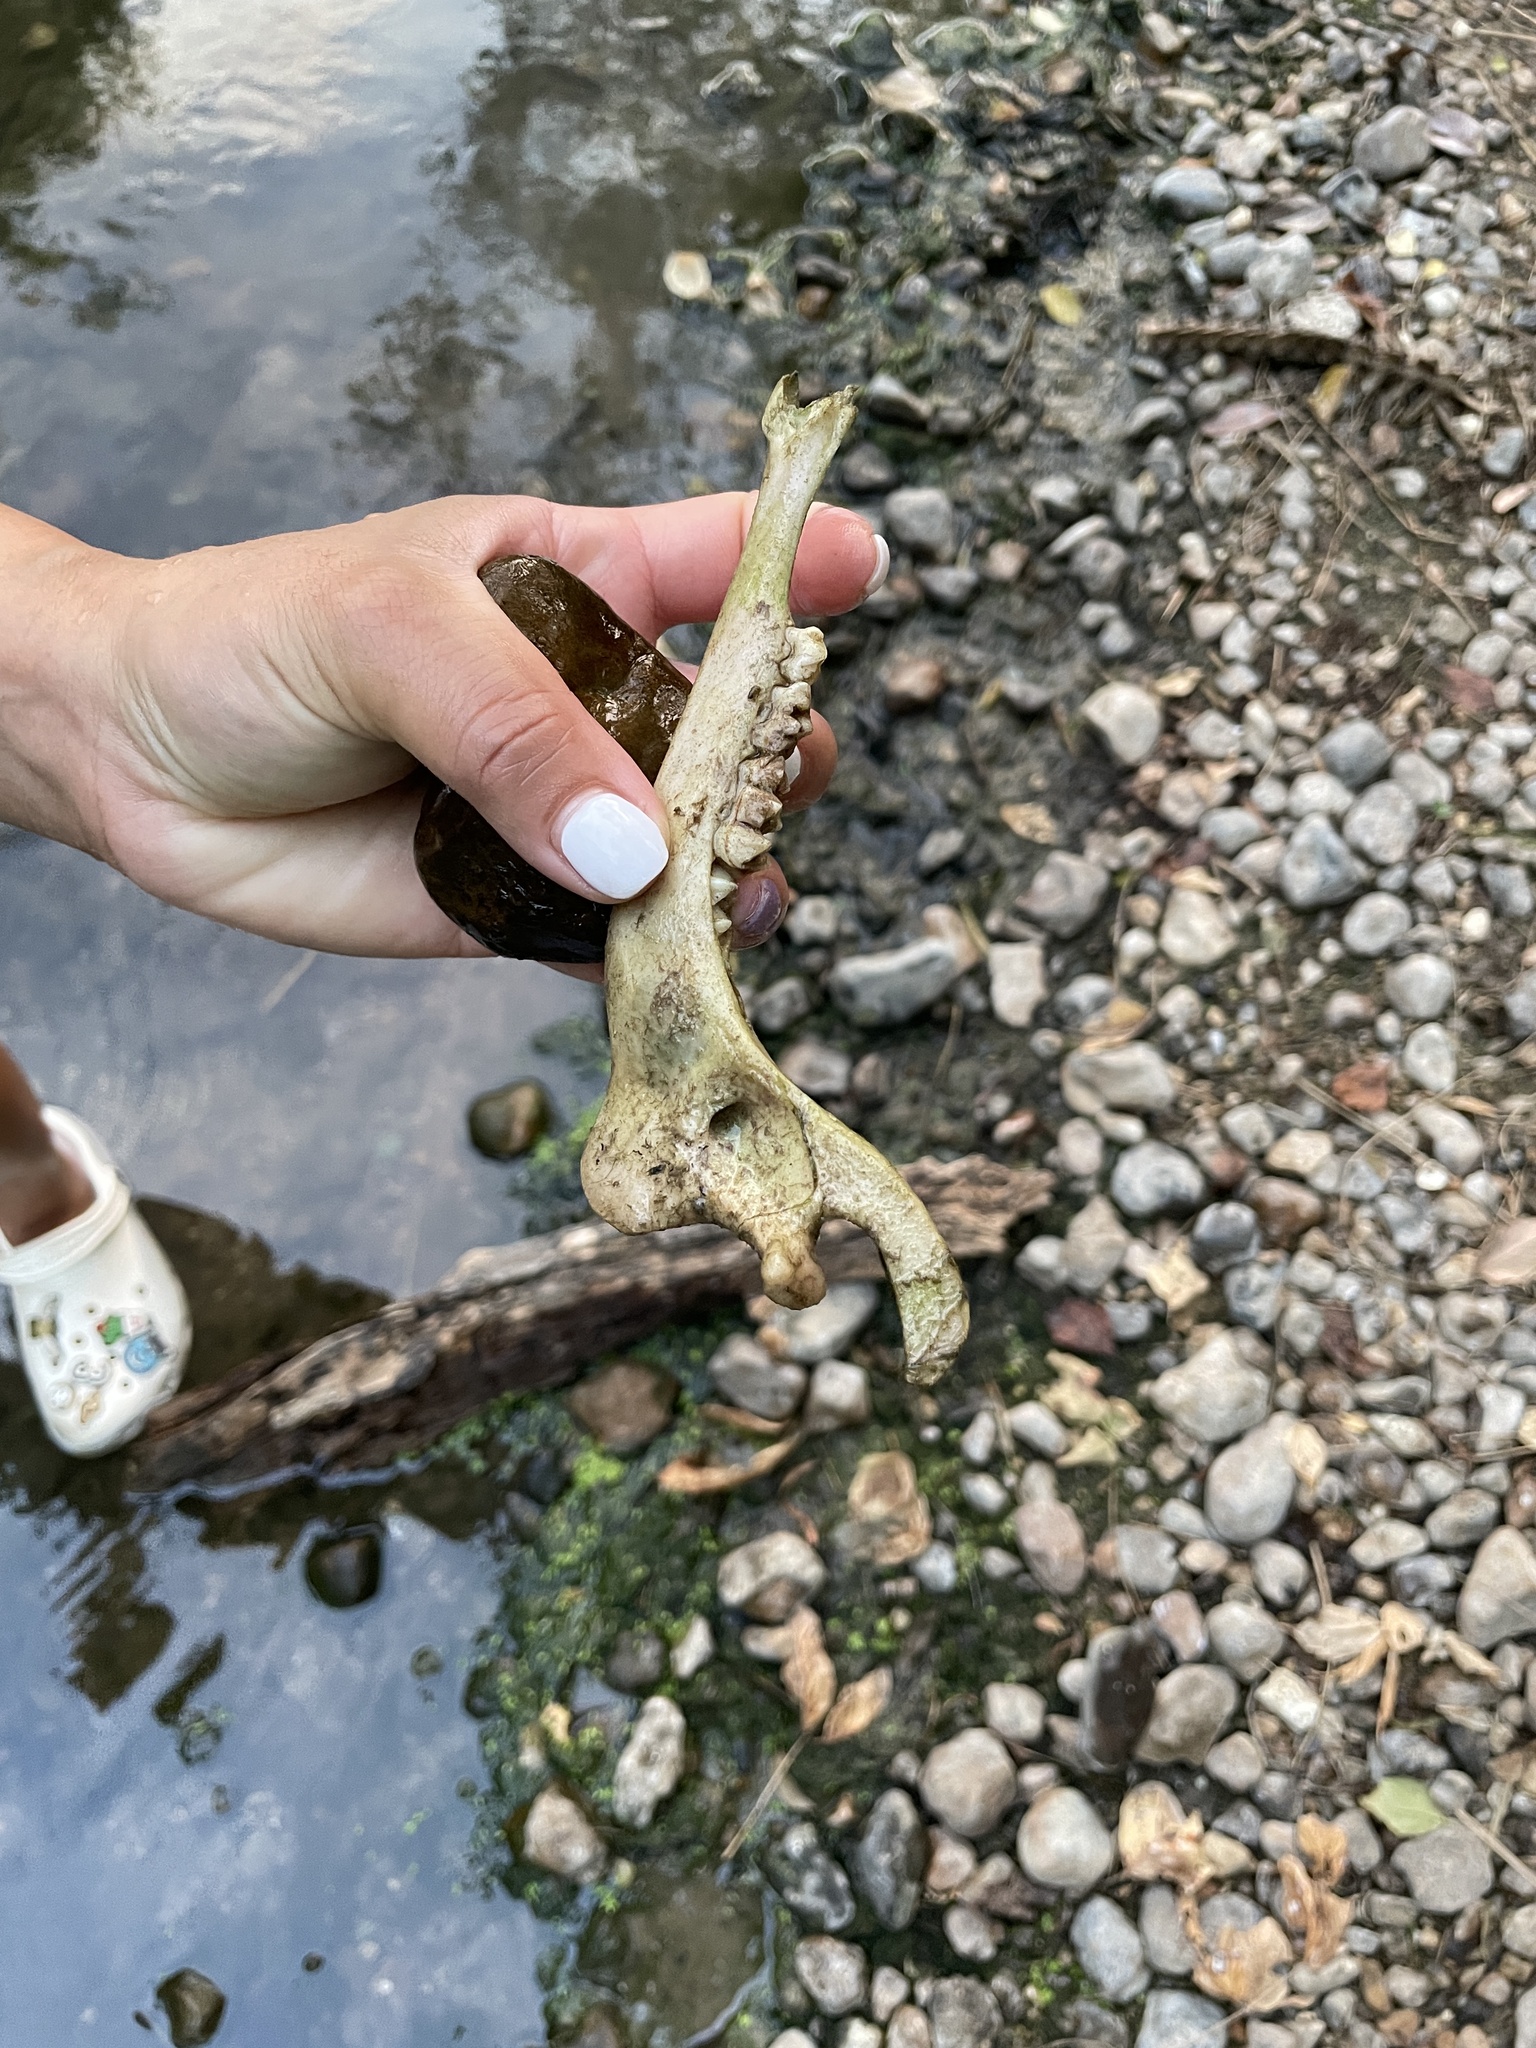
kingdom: Animalia
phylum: Chordata
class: Mammalia
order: Artiodactyla
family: Cervidae
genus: Odocoileus
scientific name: Odocoileus virginianus
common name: White-tailed deer
